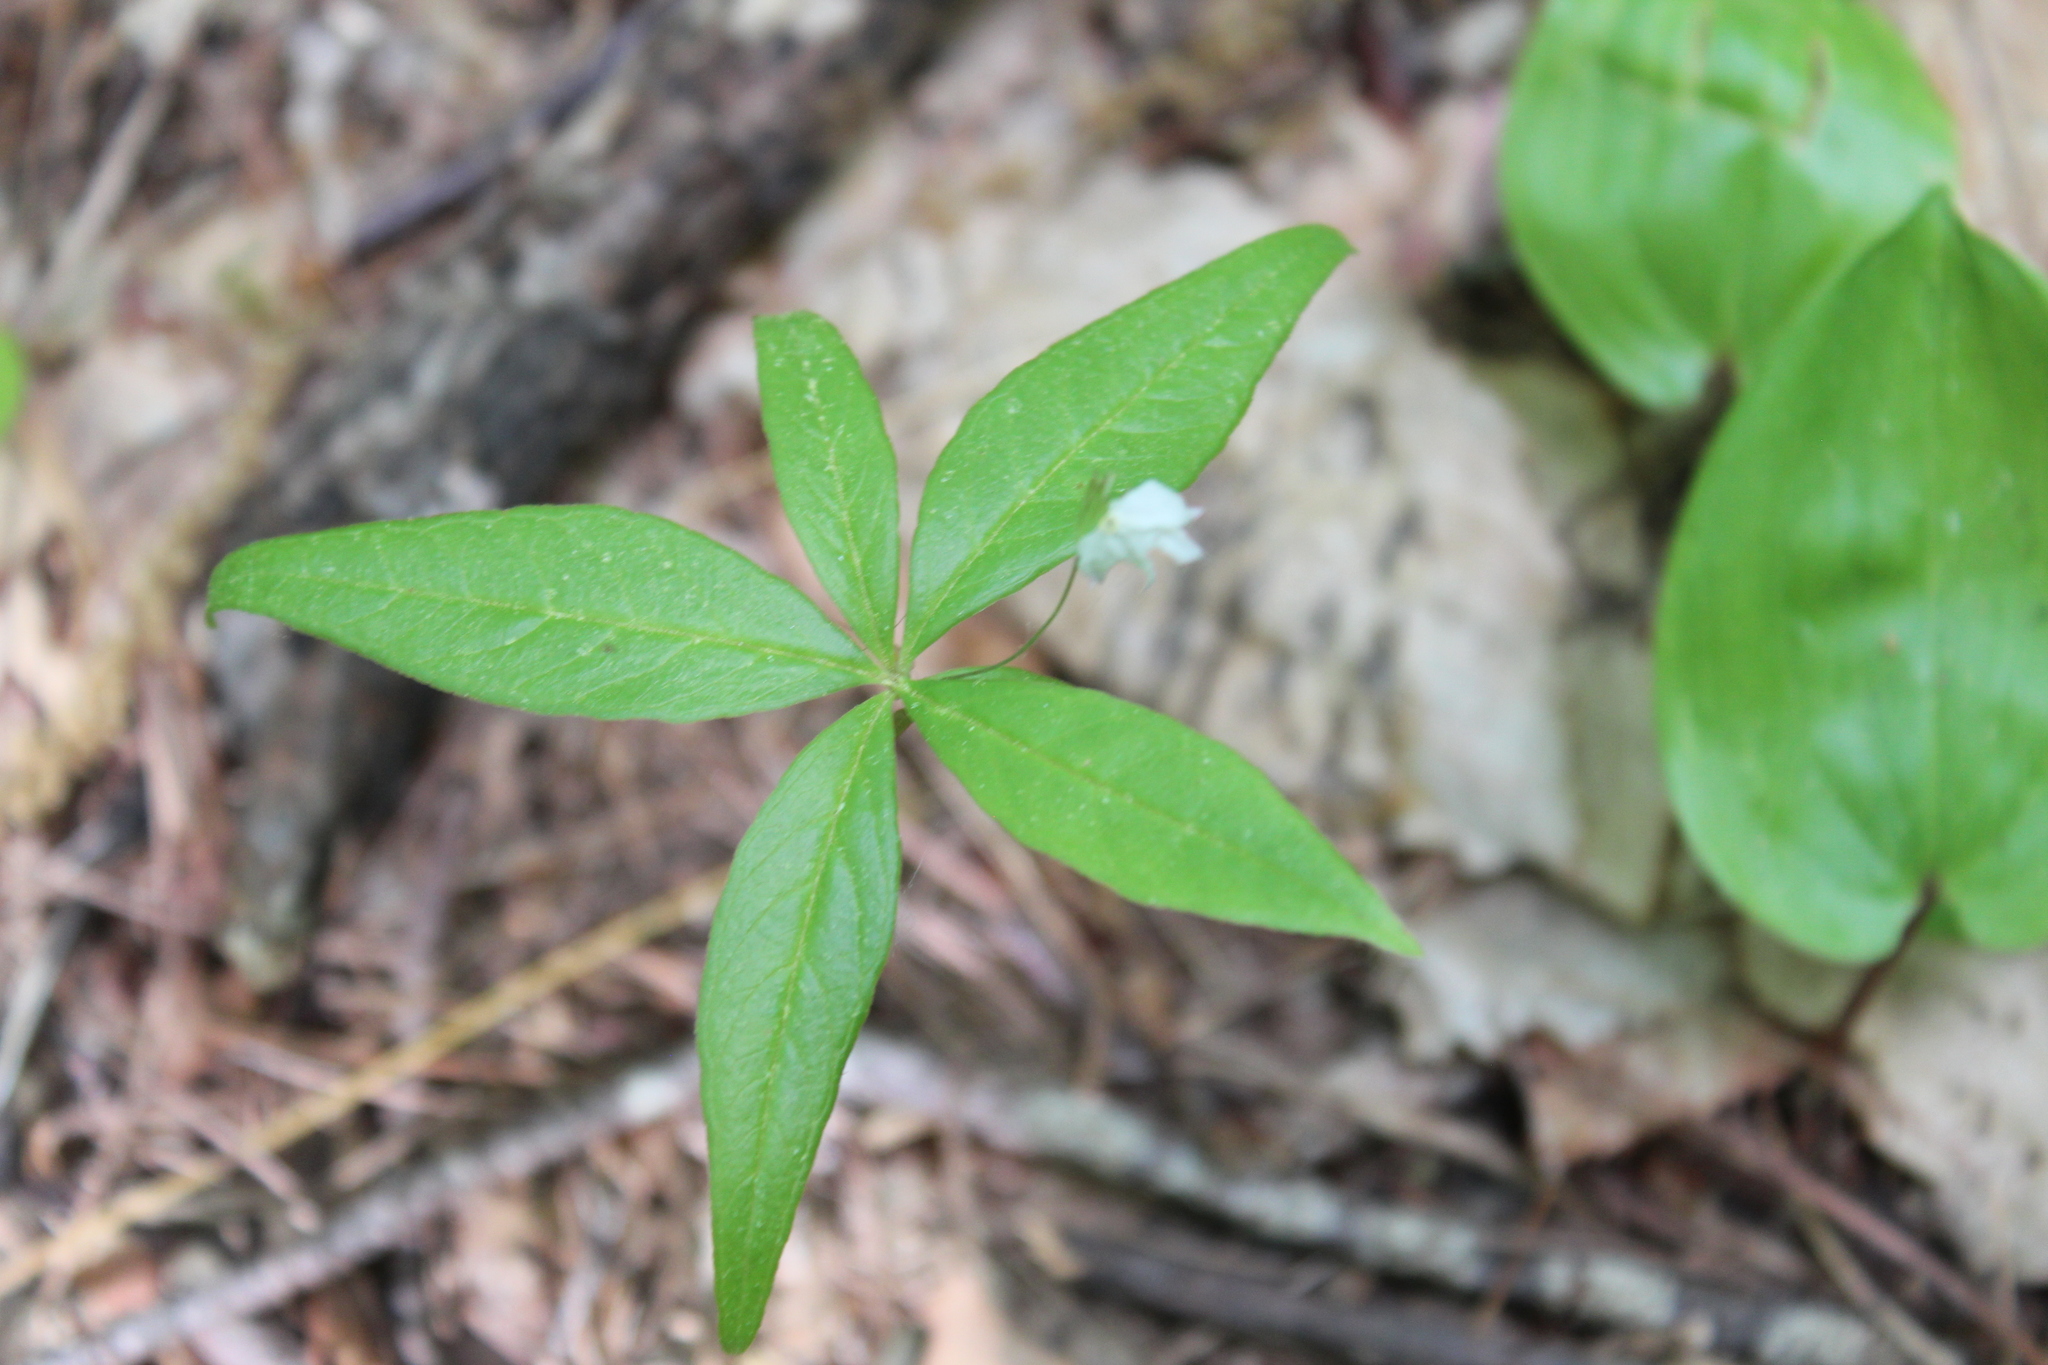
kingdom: Plantae
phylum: Tracheophyta
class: Magnoliopsida
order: Ericales
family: Primulaceae
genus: Lysimachia
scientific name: Lysimachia borealis
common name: American starflower
